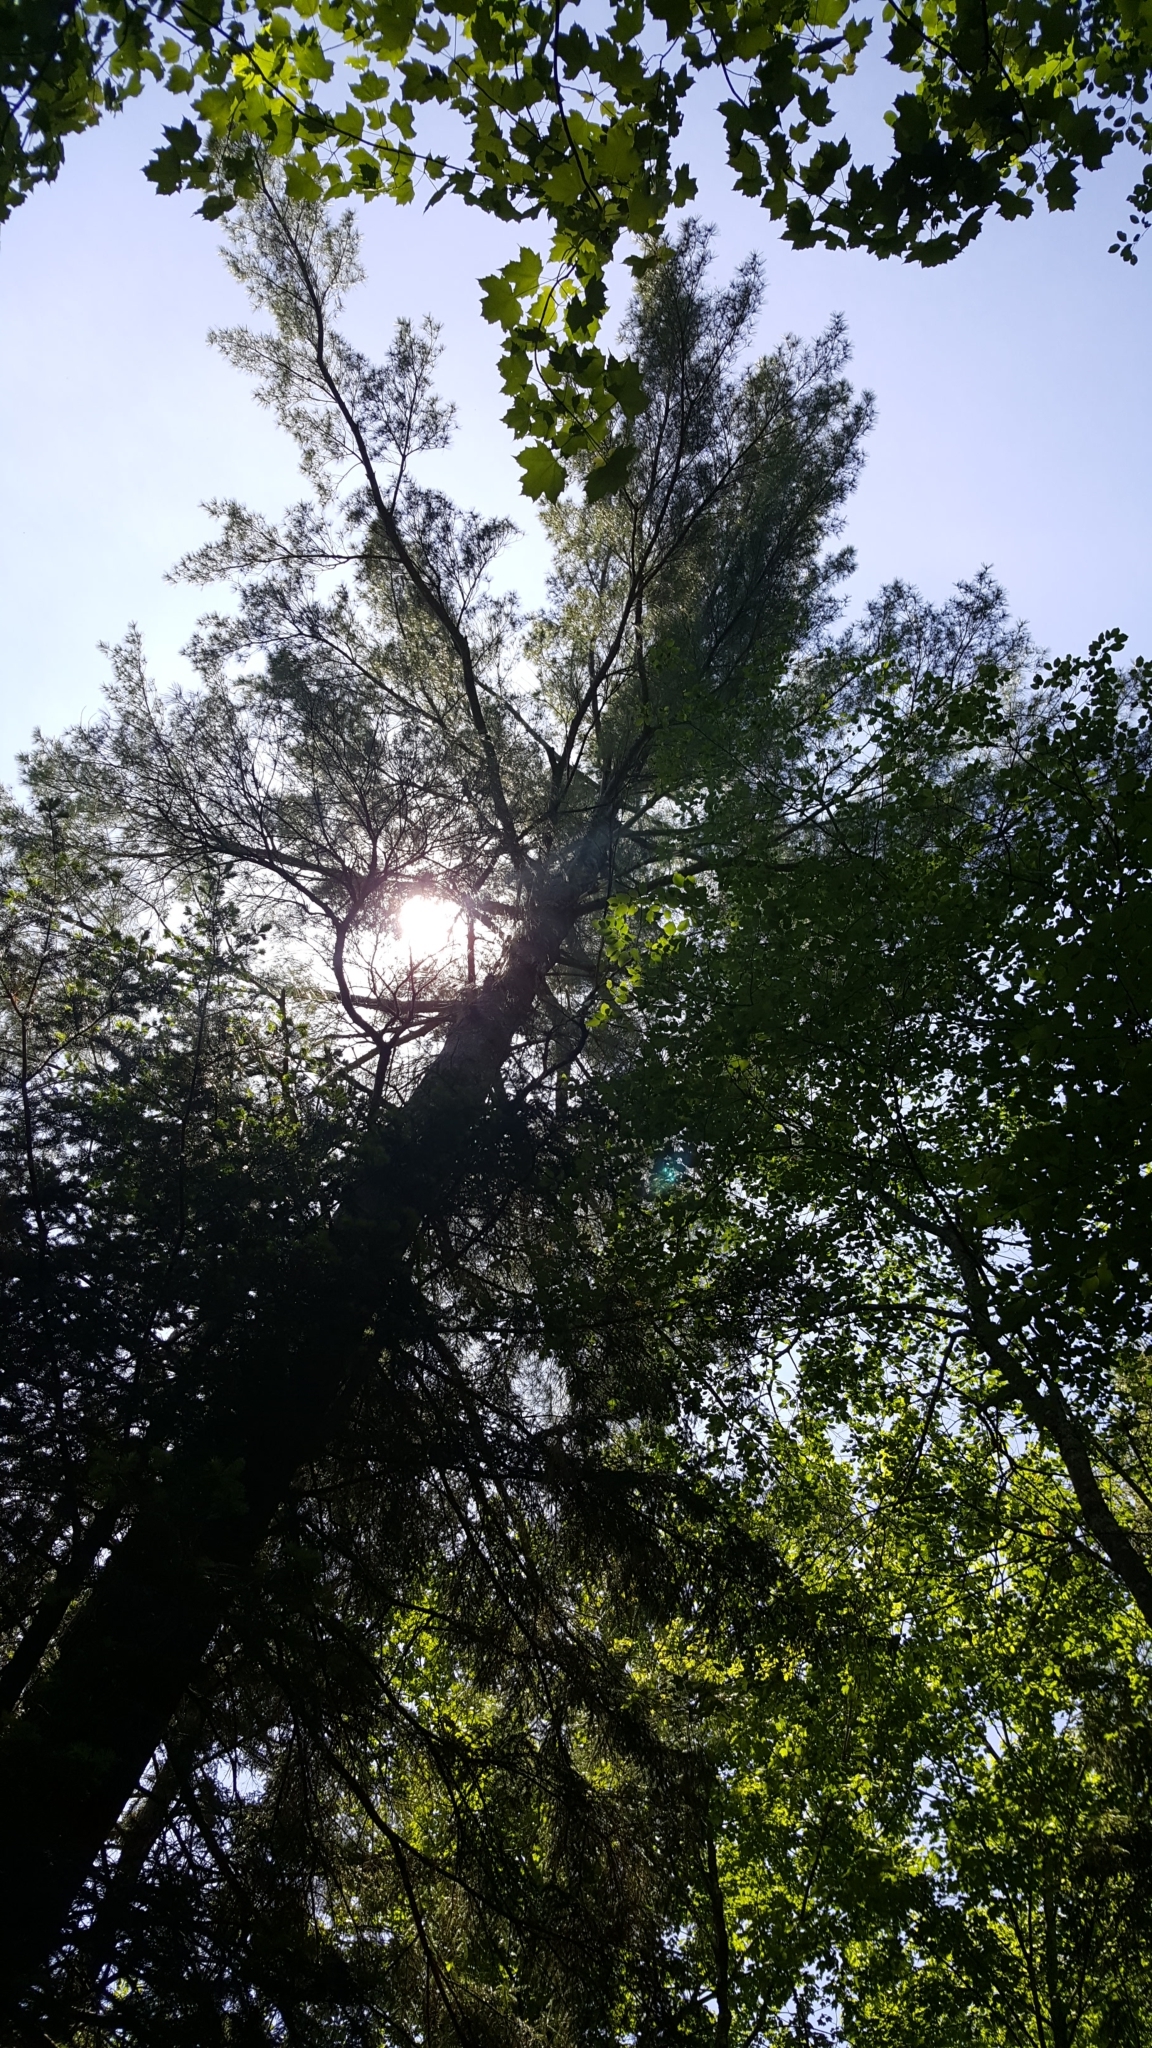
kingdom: Plantae
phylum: Tracheophyta
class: Pinopsida
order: Pinales
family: Pinaceae
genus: Pinus
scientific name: Pinus strobus
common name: Weymouth pine
